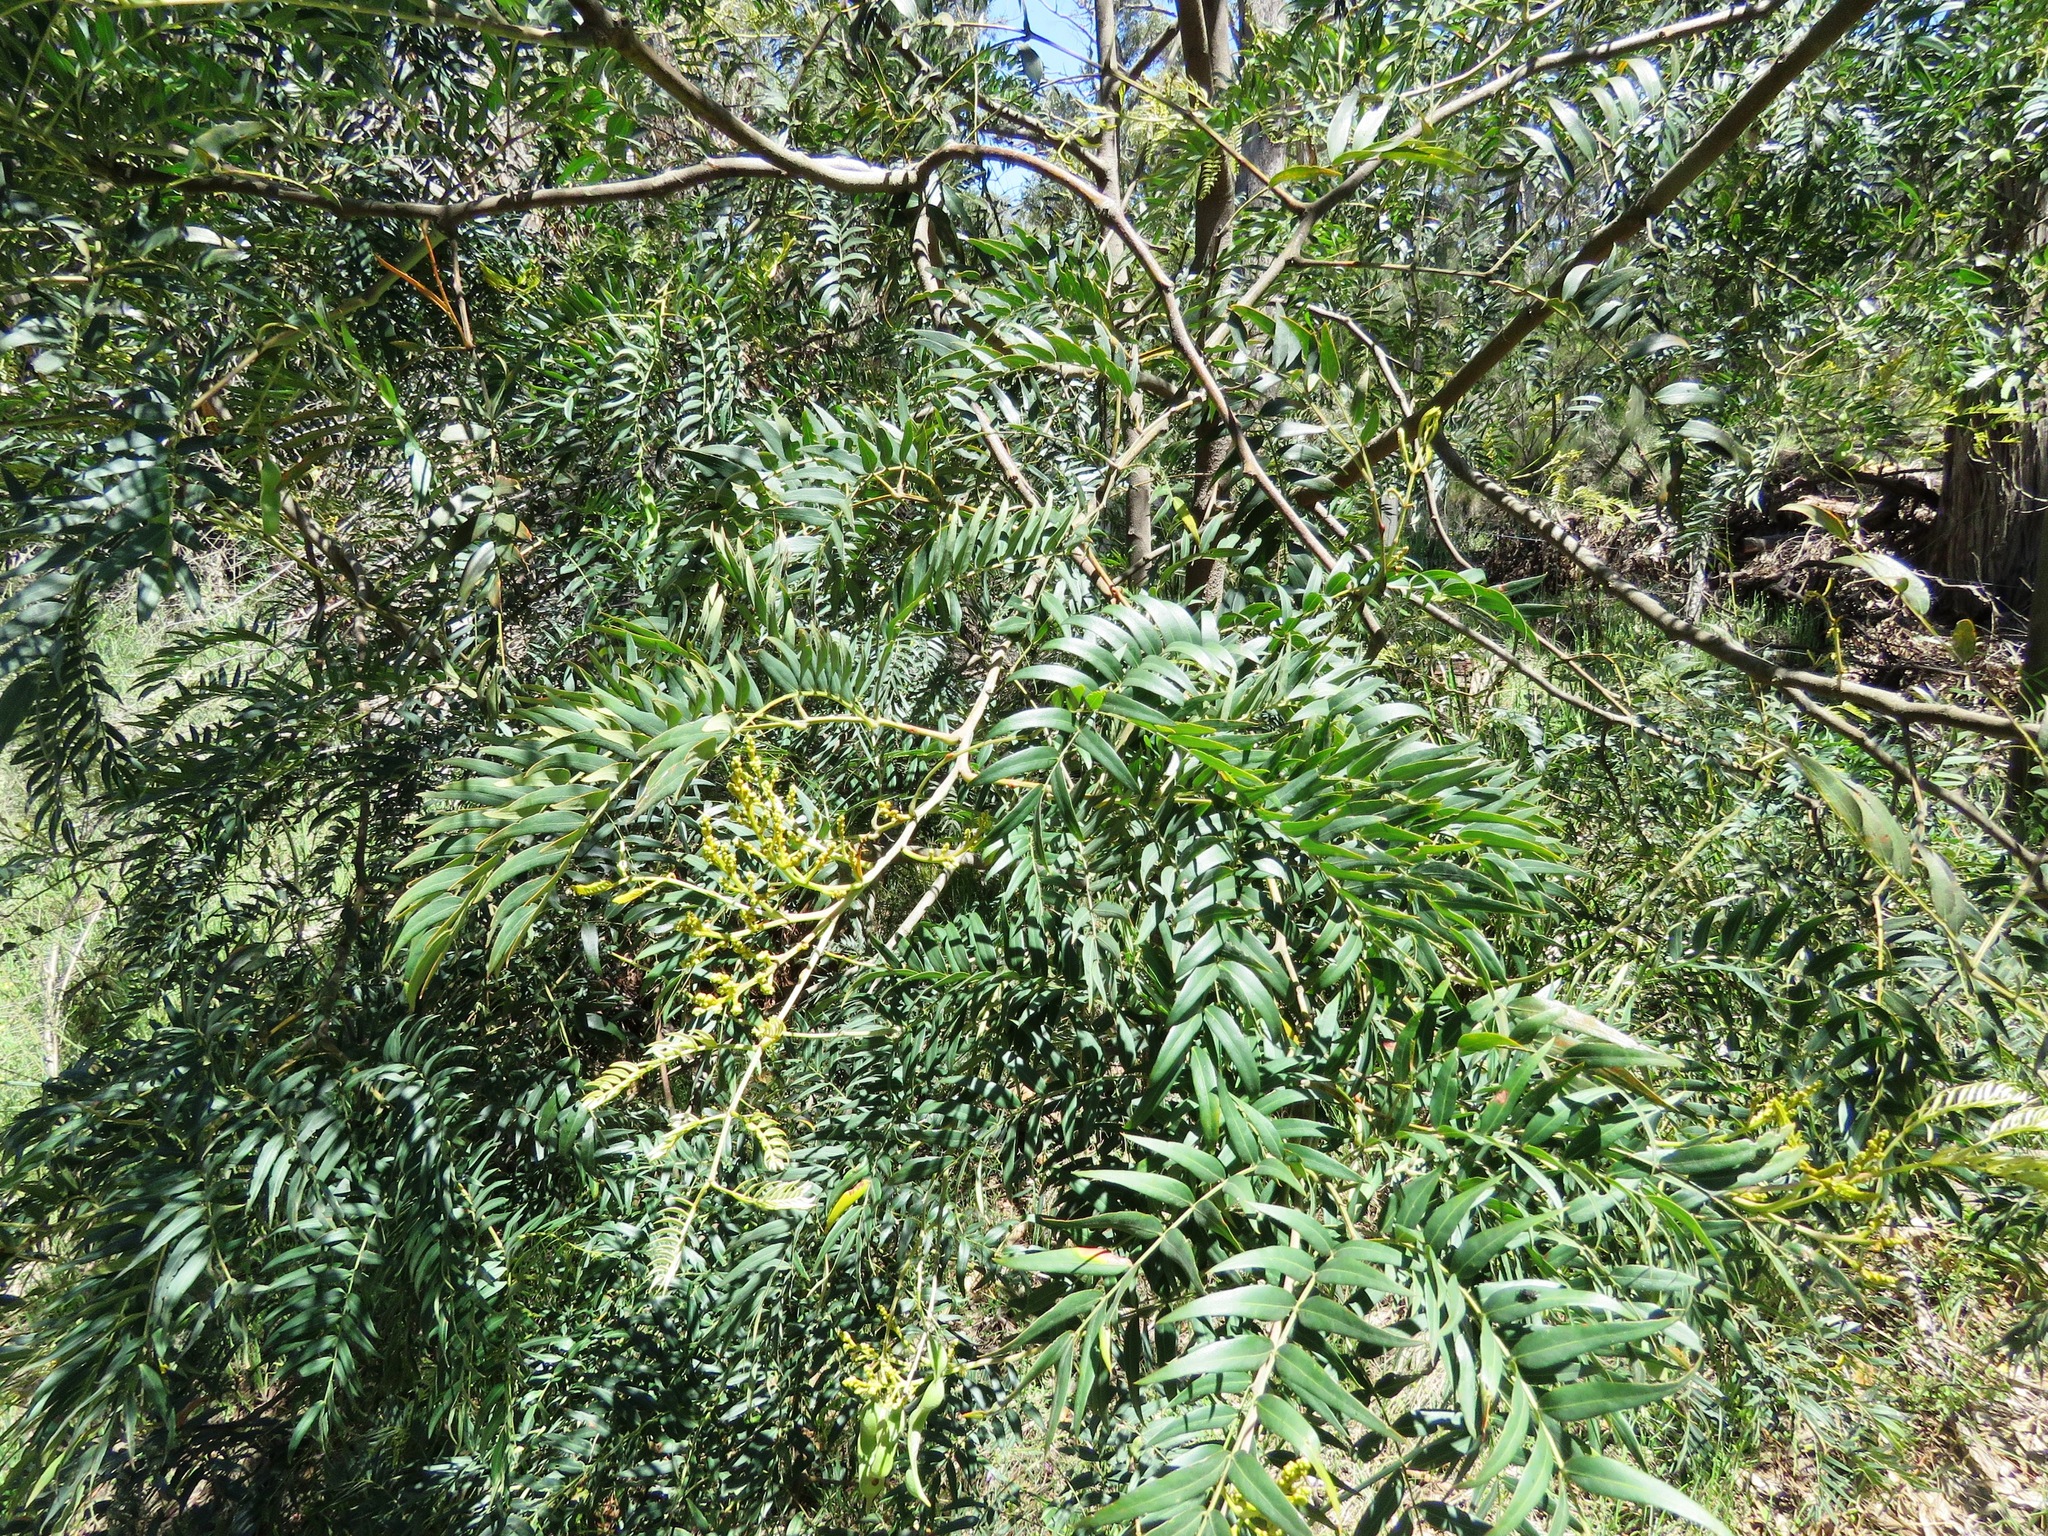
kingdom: Plantae
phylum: Tracheophyta
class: Magnoliopsida
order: Fabales
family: Fabaceae
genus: Acacia
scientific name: Acacia elata
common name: Cedar wattle
